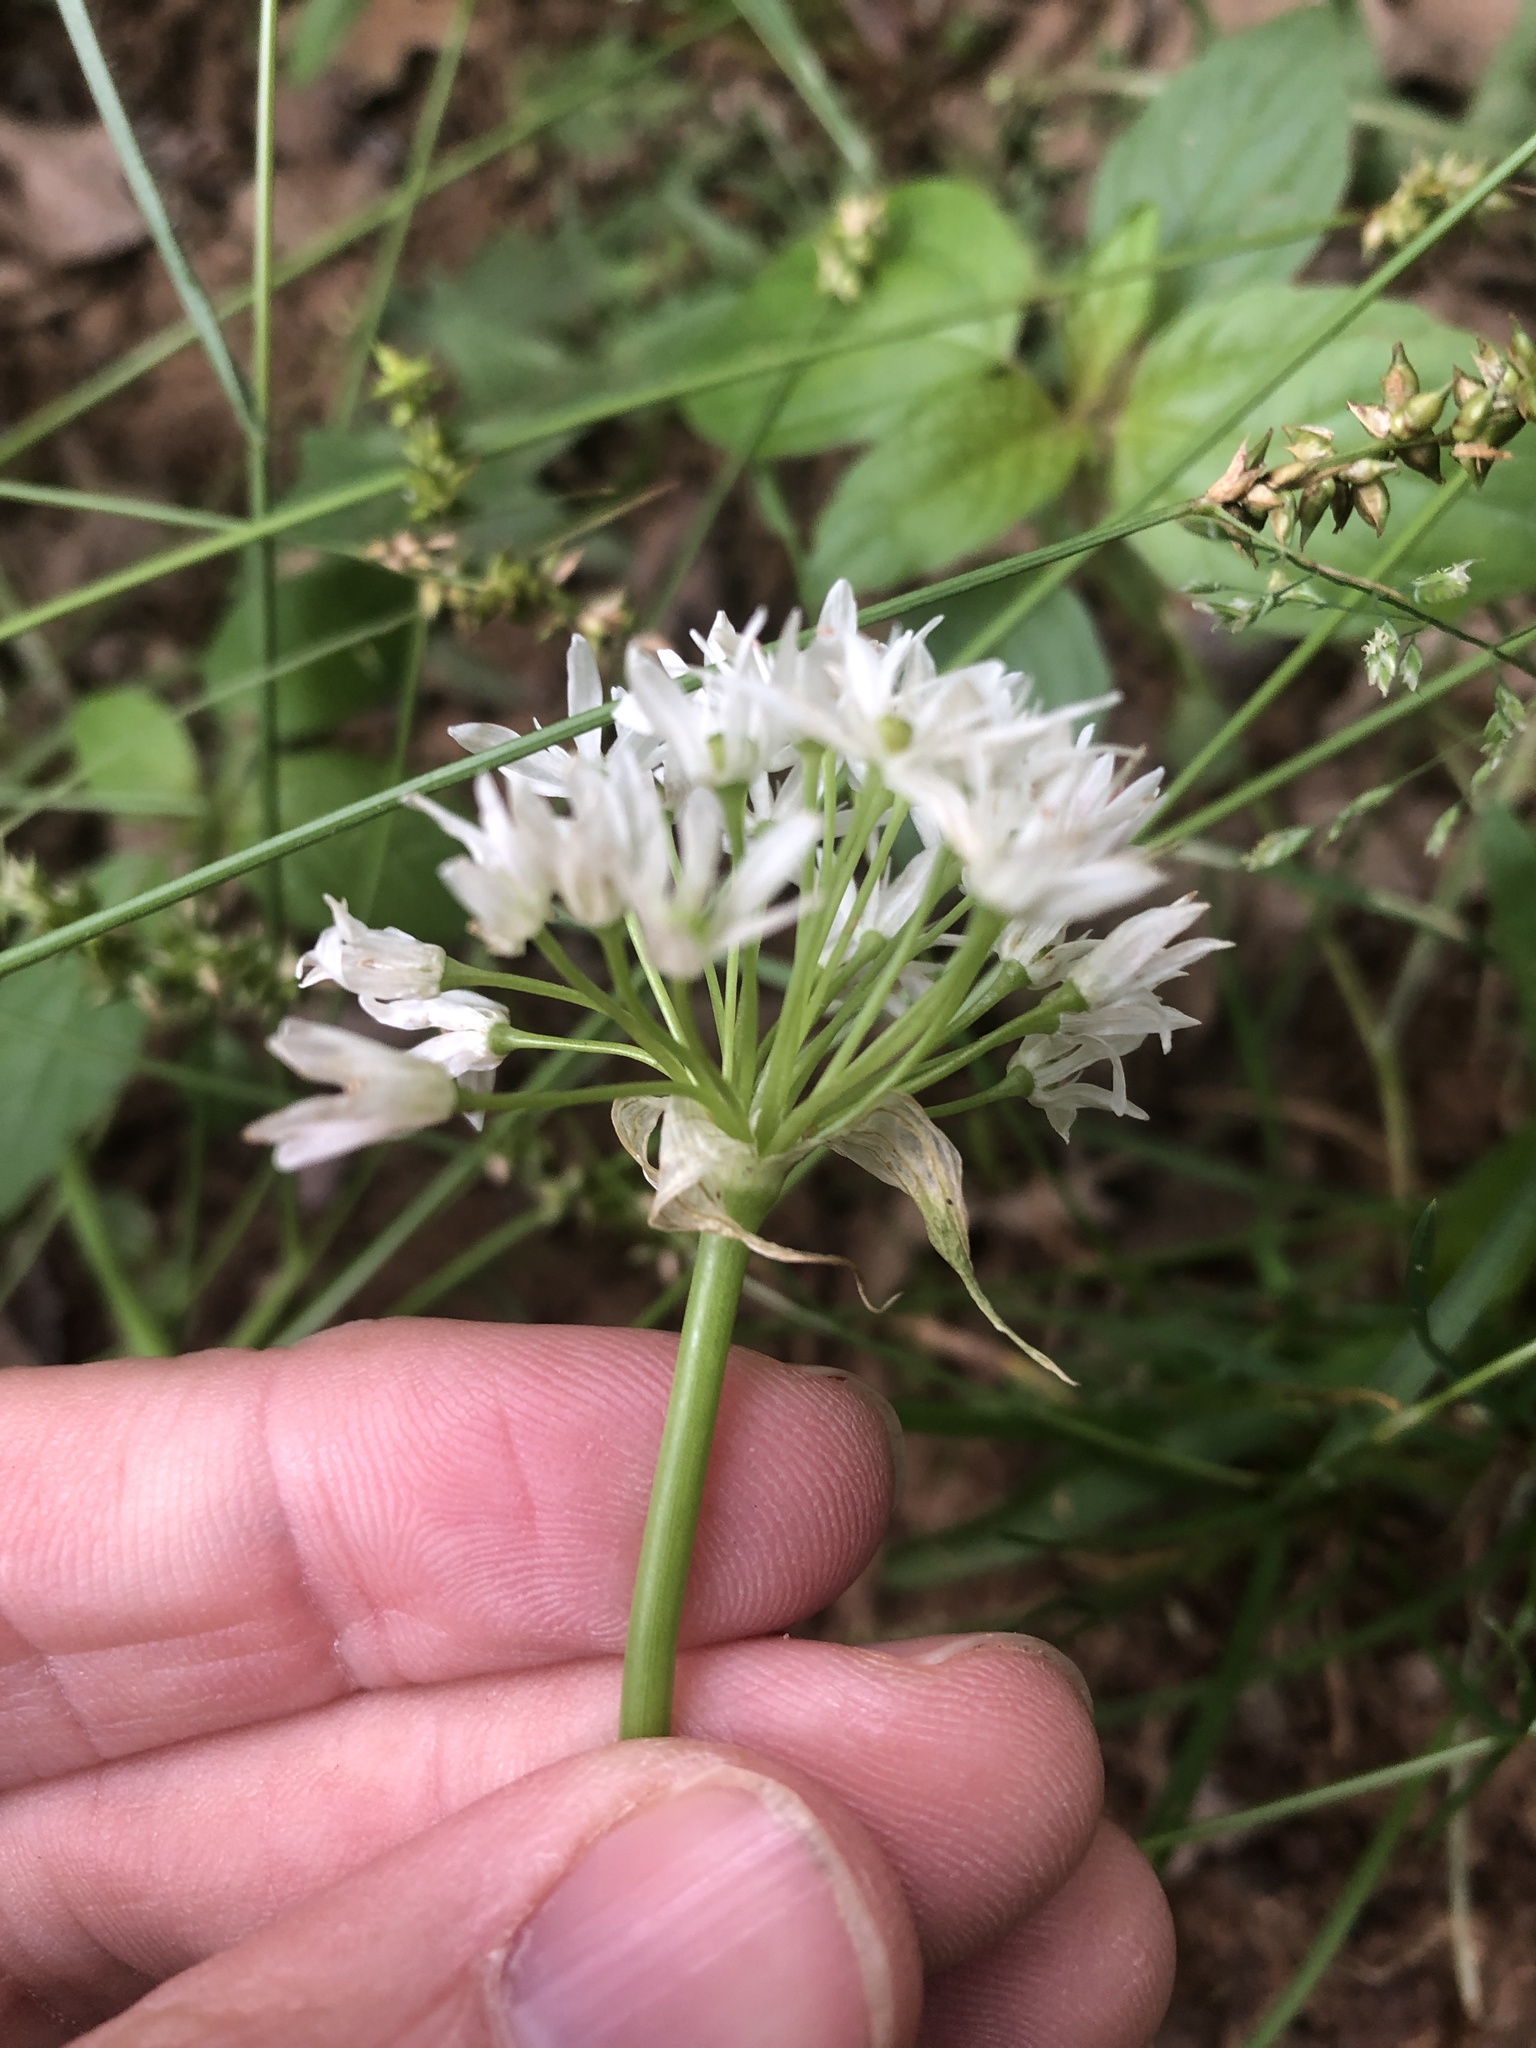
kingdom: Plantae
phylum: Tracheophyta
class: Liliopsida
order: Asparagales
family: Amaryllidaceae
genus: Allium
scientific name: Allium fraseri
